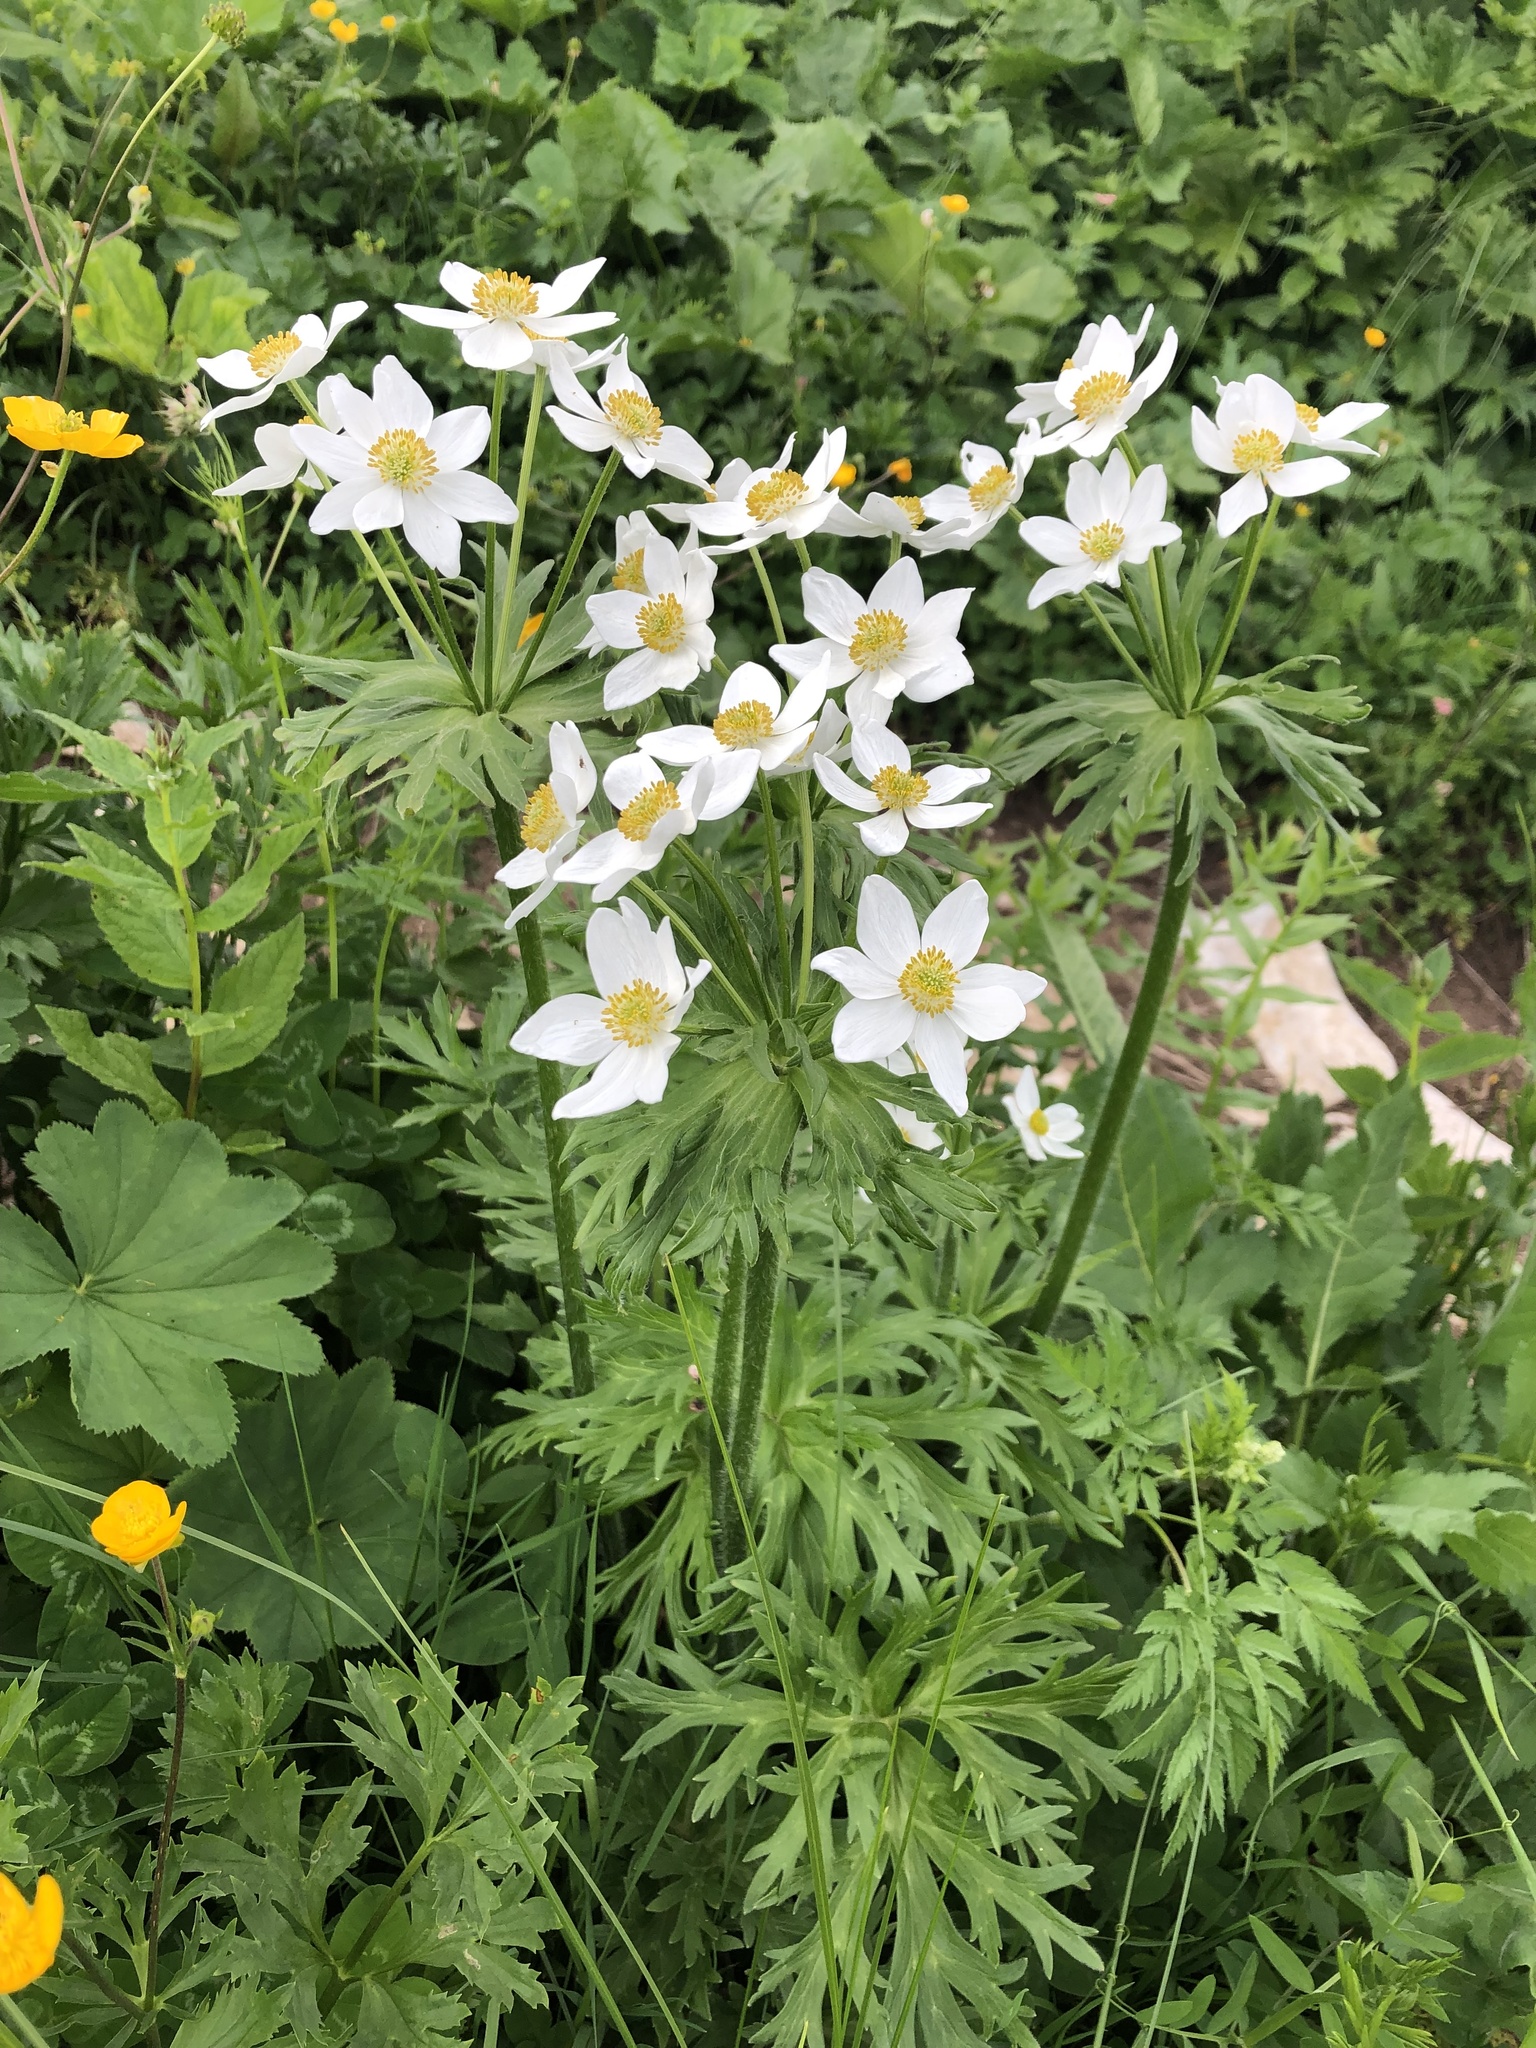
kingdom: Plantae
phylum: Tracheophyta
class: Magnoliopsida
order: Ranunculales
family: Ranunculaceae
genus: Anemonastrum
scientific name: Anemonastrum narcissiflorum
